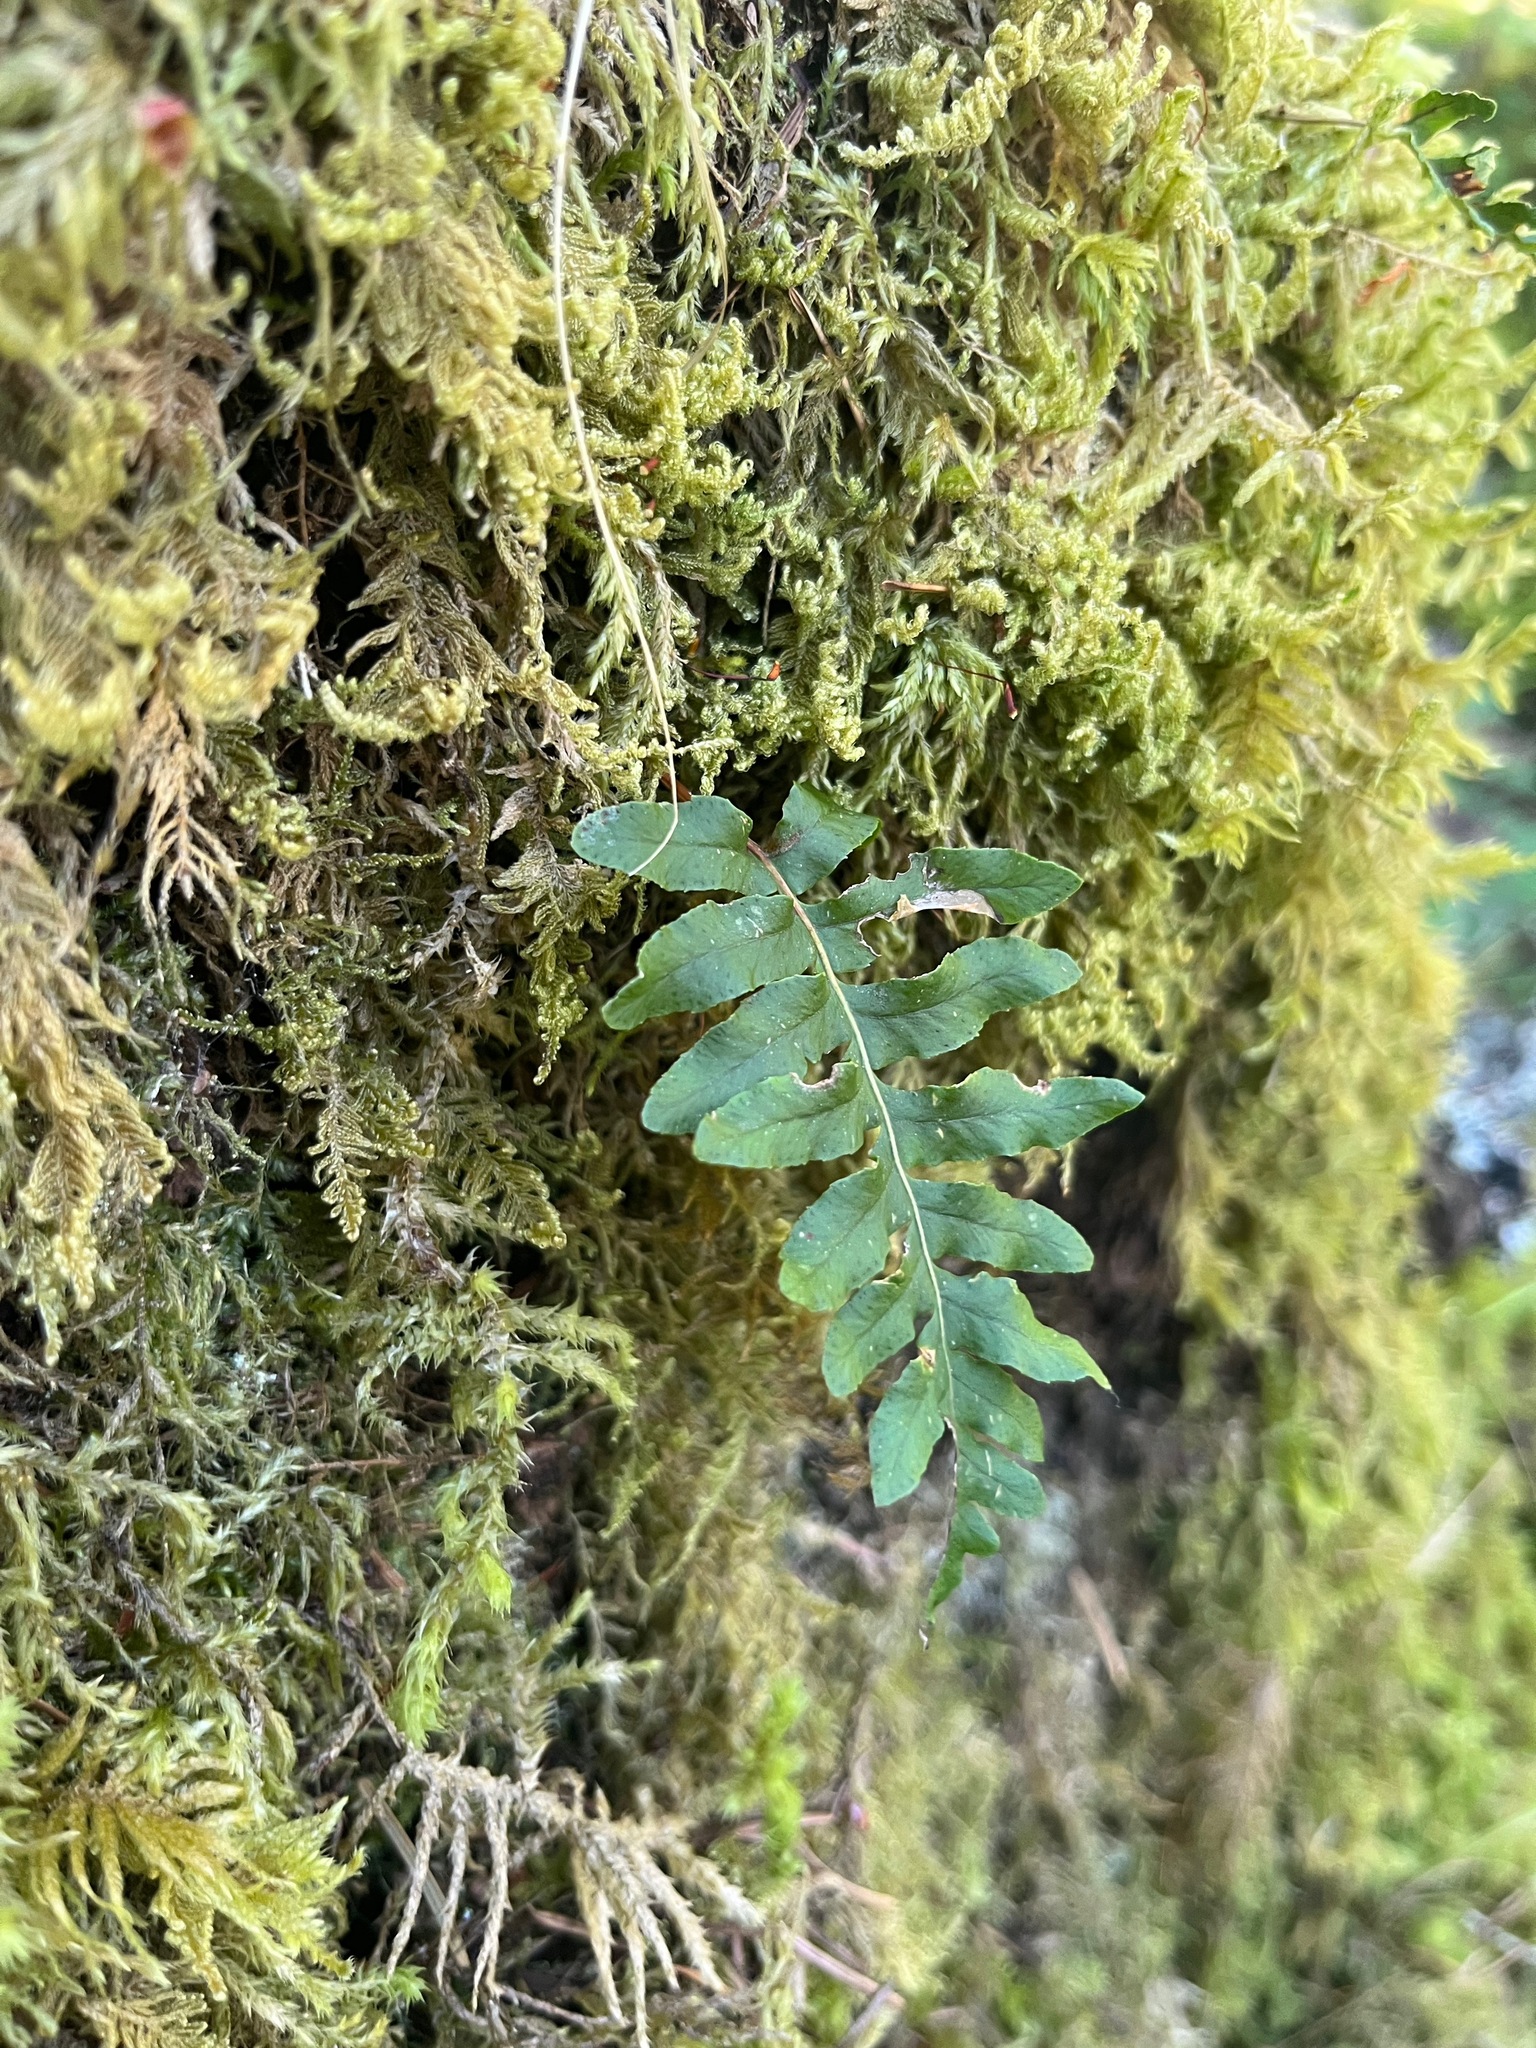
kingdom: Plantae
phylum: Tracheophyta
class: Polypodiopsida
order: Polypodiales
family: Polypodiaceae
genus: Polypodium
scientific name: Polypodium glycyrrhiza
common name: Licorice fern
